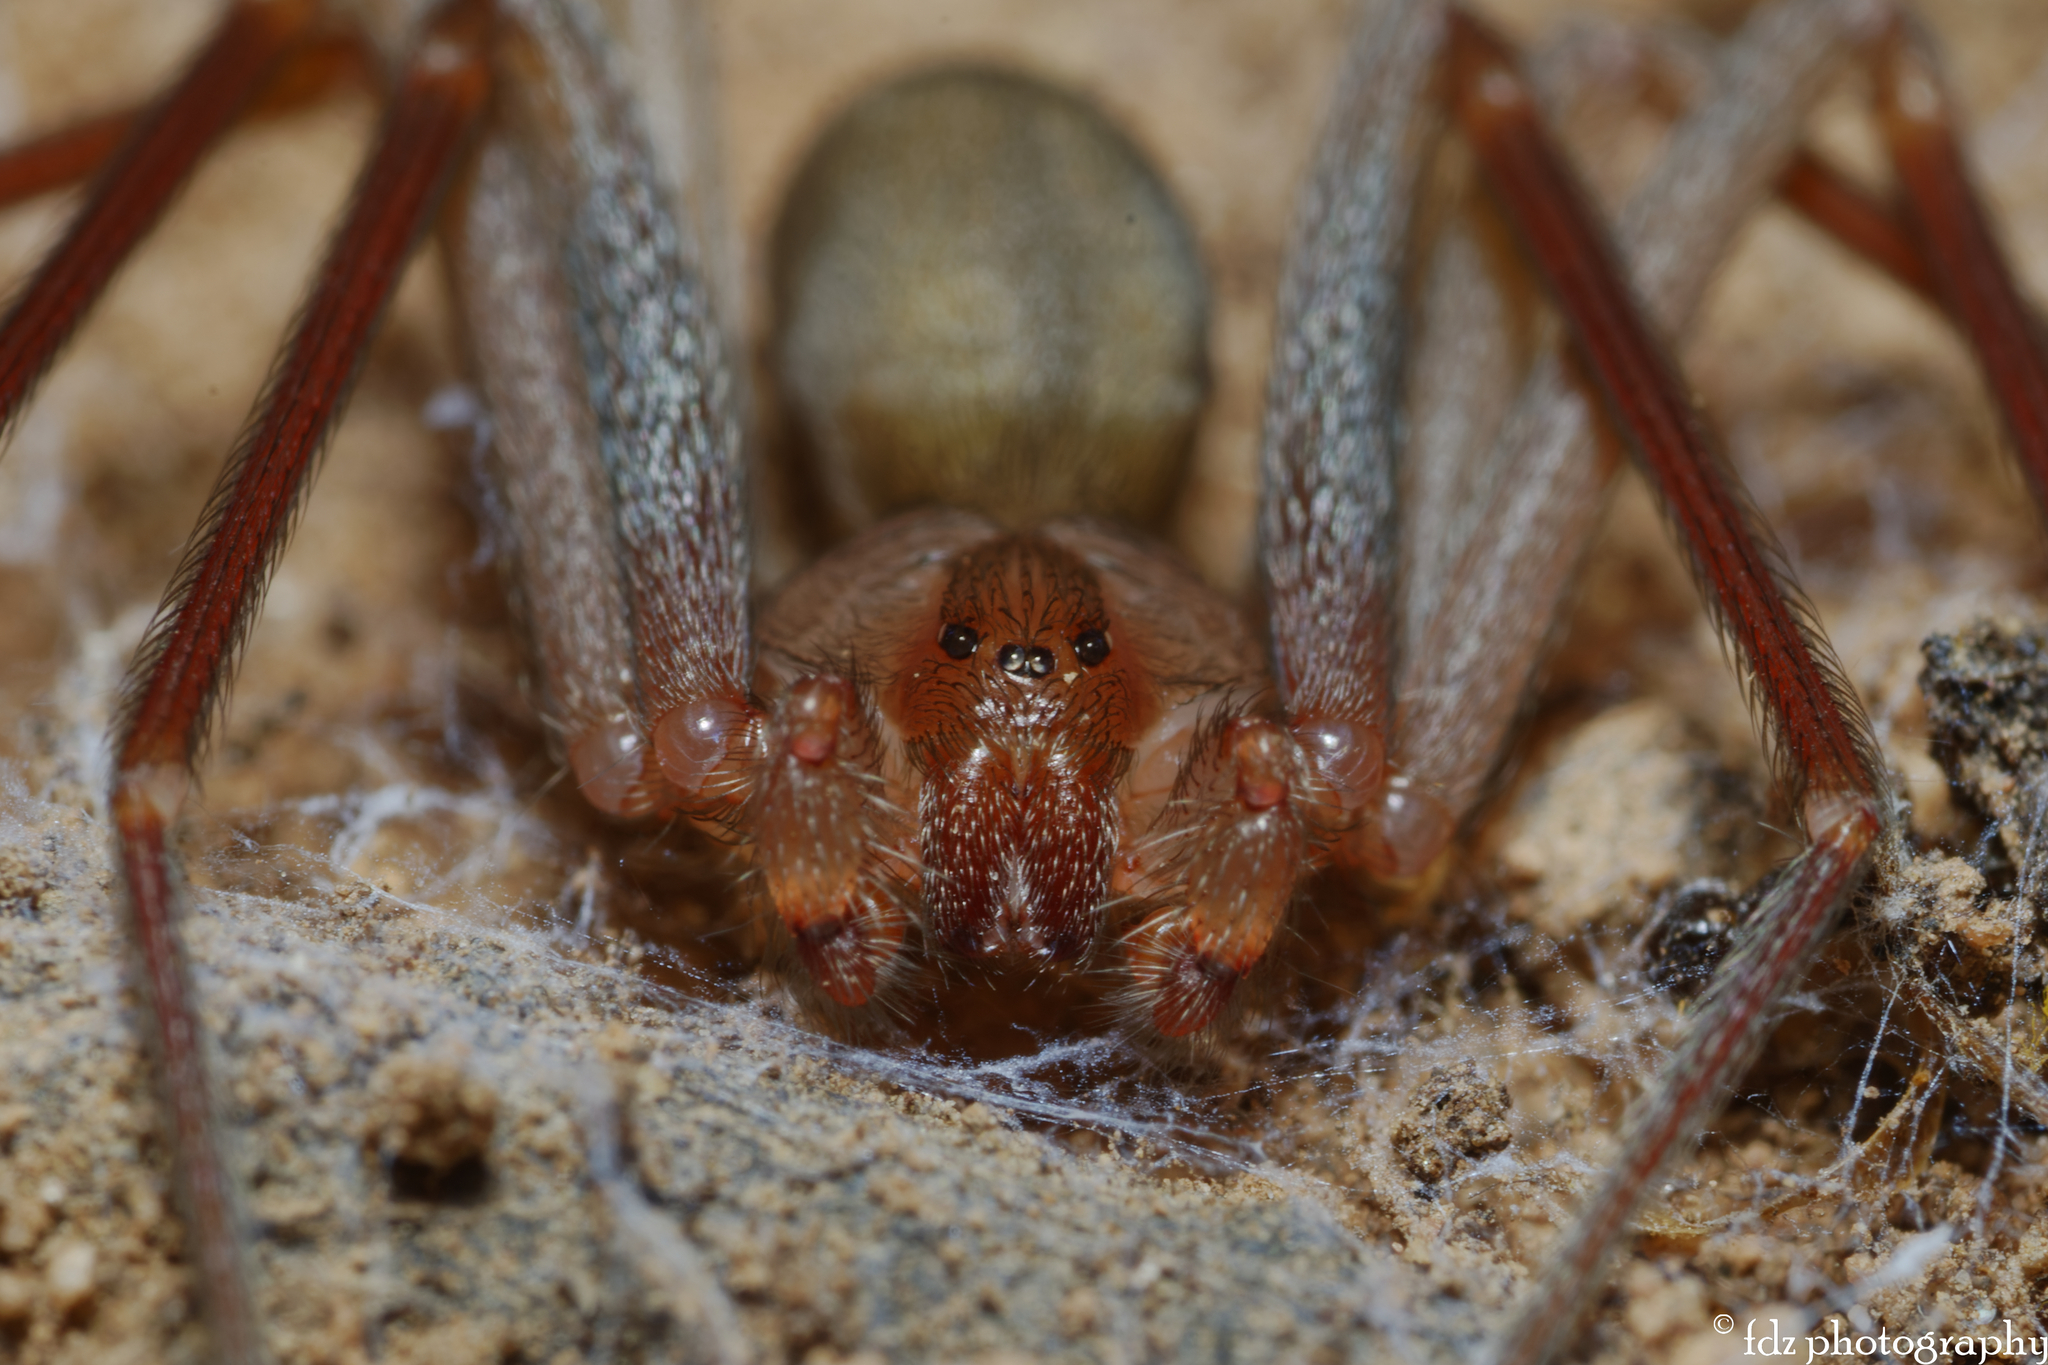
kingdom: Animalia
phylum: Arthropoda
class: Arachnida
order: Araneae
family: Sicariidae
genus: Loxosceles
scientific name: Loxosceles rufescens
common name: Mediterranean recluse spider
